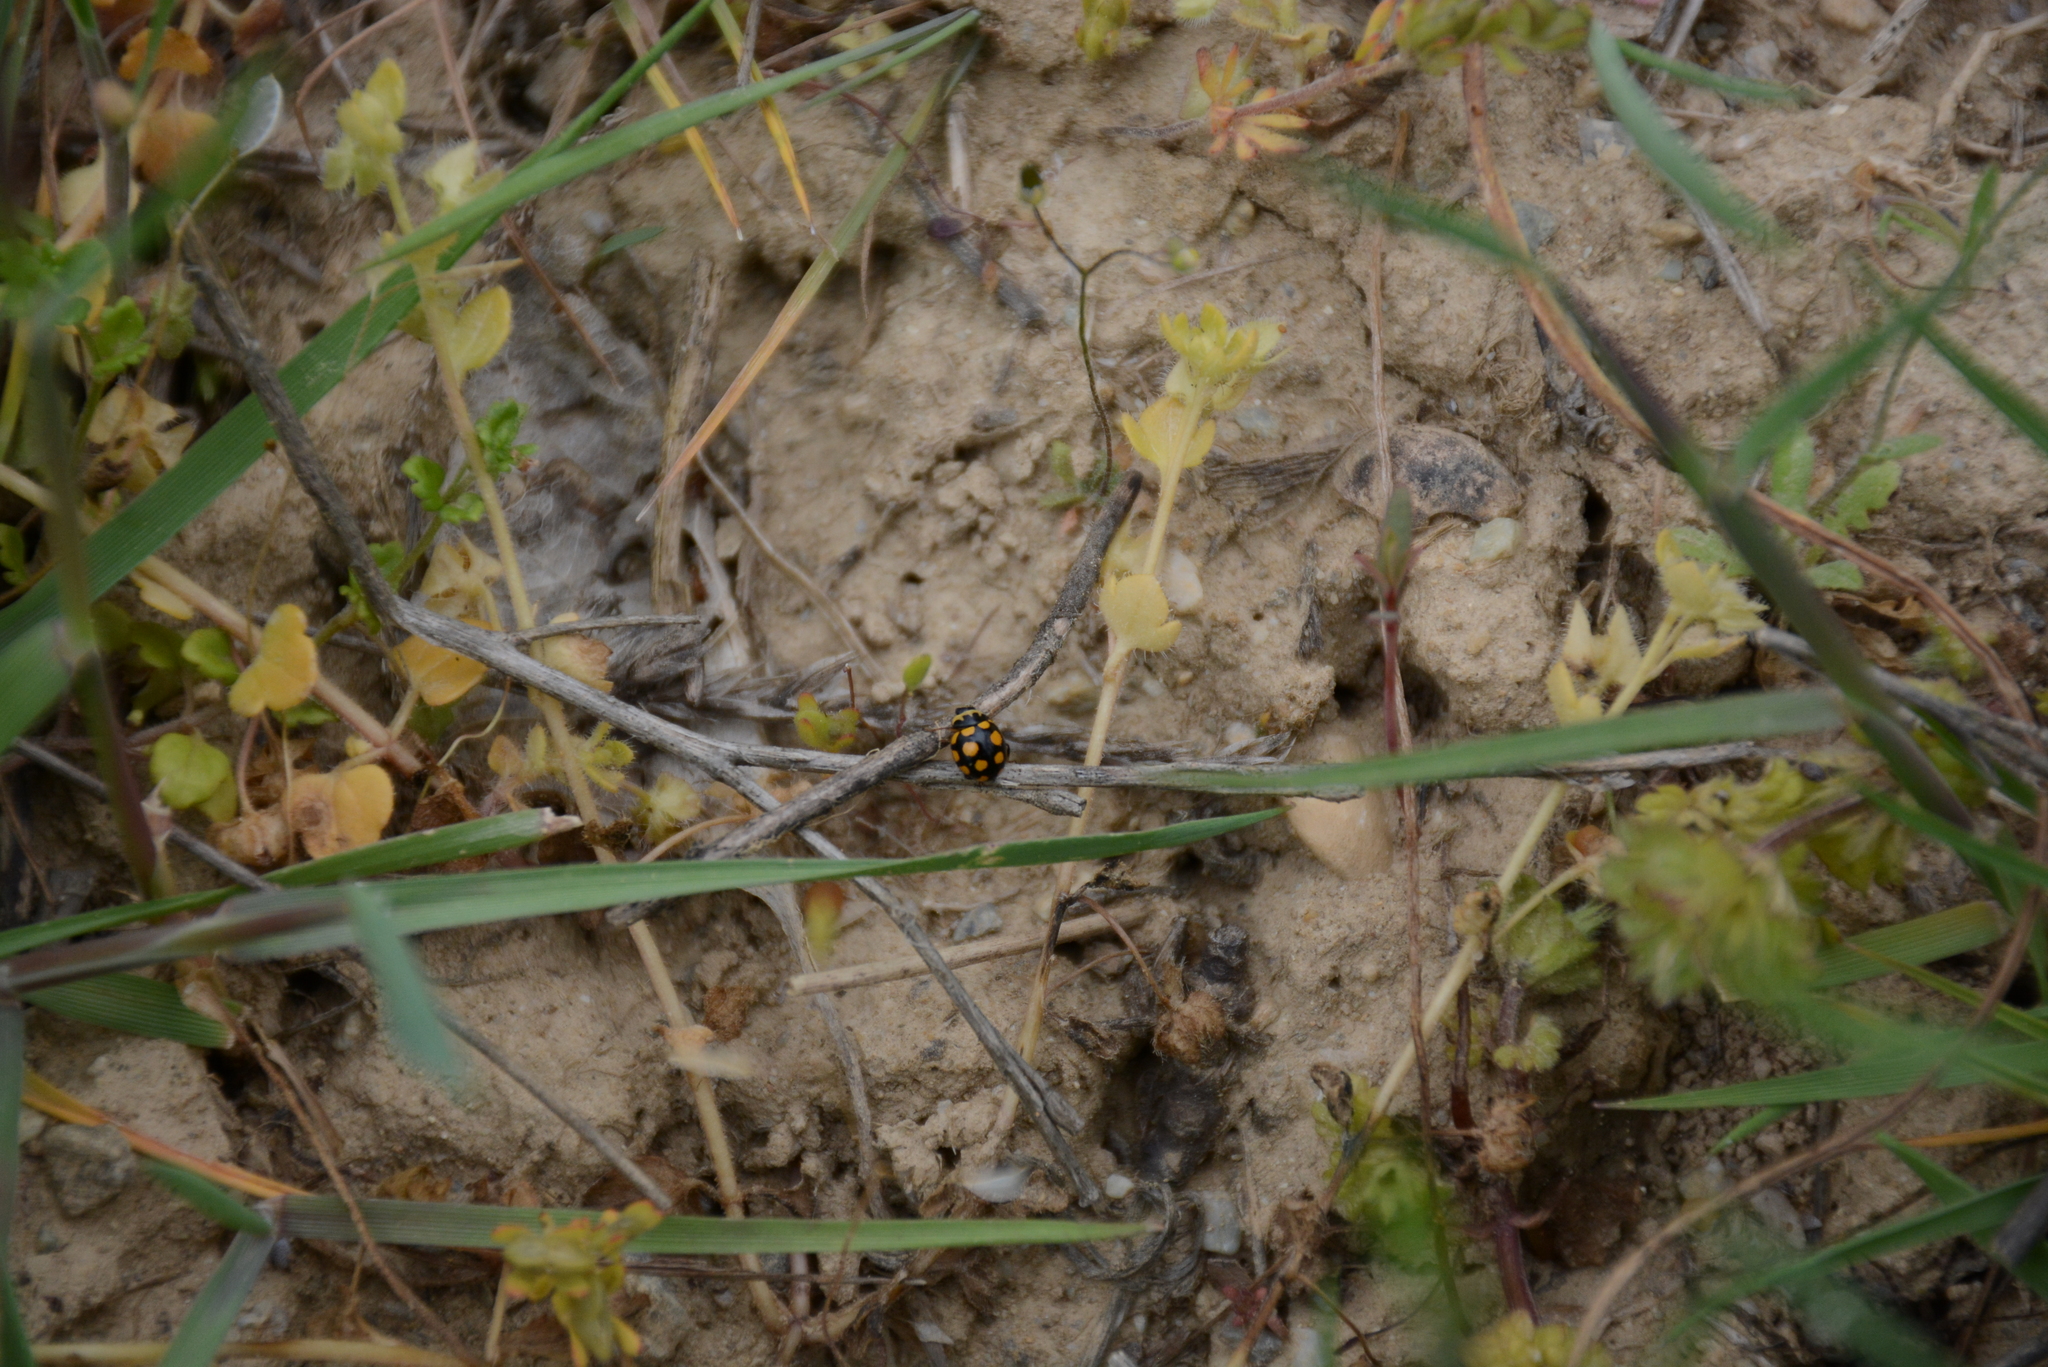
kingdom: Animalia
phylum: Arthropoda
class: Insecta
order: Coleoptera
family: Coccinellidae
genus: Coccinula
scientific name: Coccinula quatuordecimpustulata
